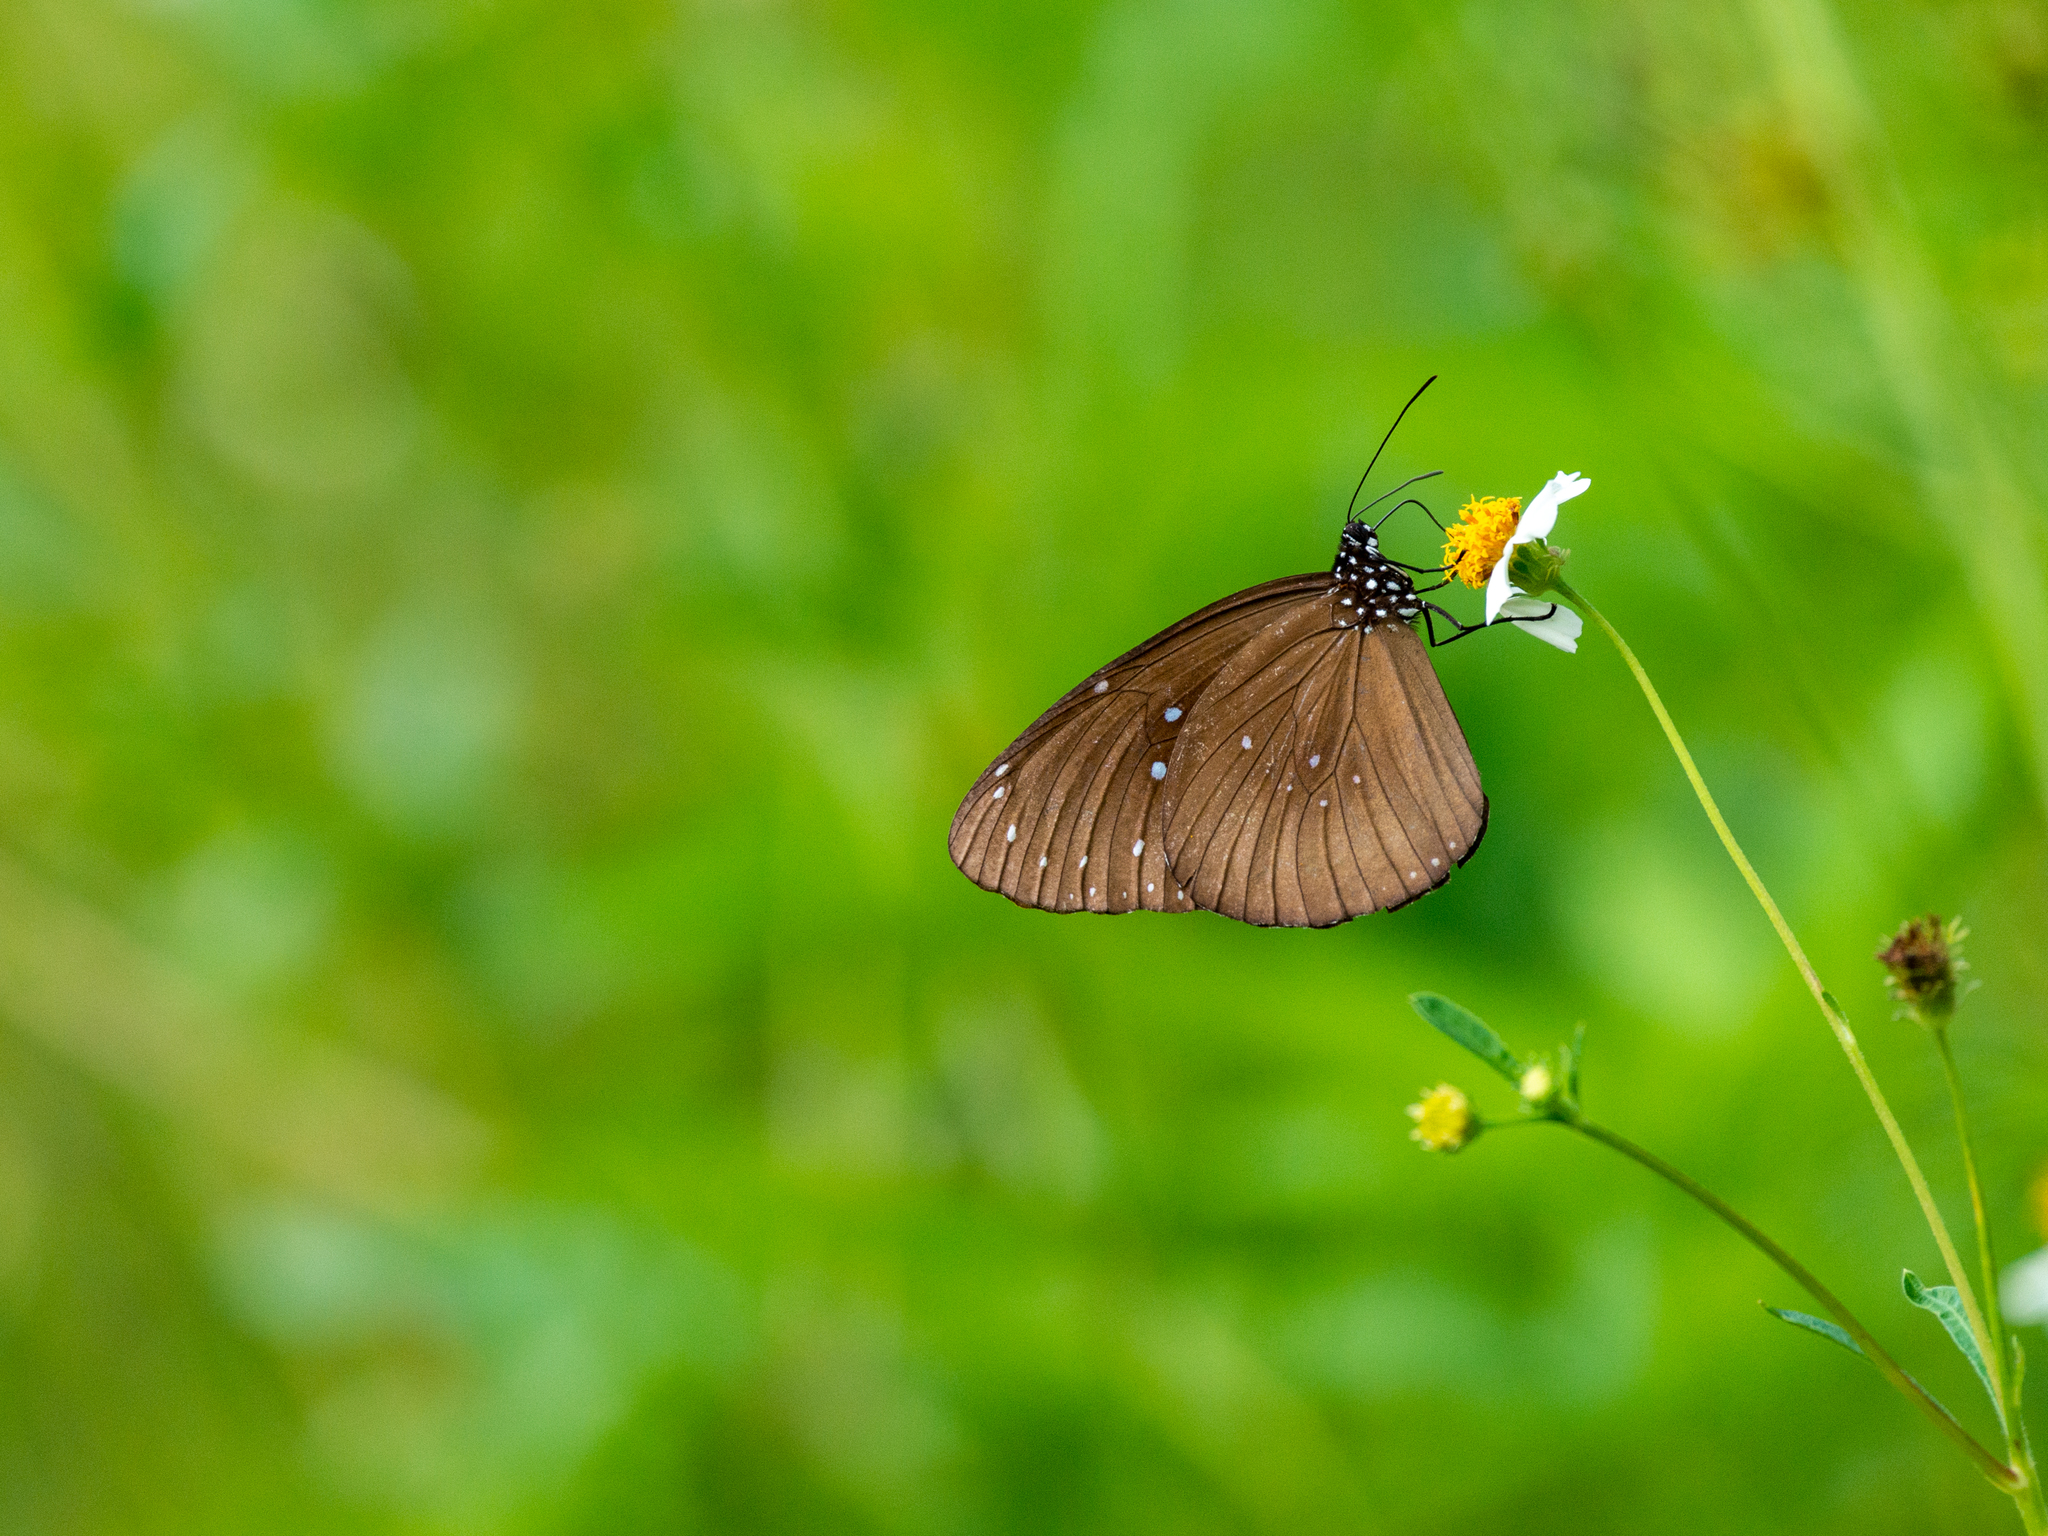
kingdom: Animalia
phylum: Arthropoda
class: Insecta
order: Lepidoptera
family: Nymphalidae
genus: Euploea
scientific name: Euploea core
